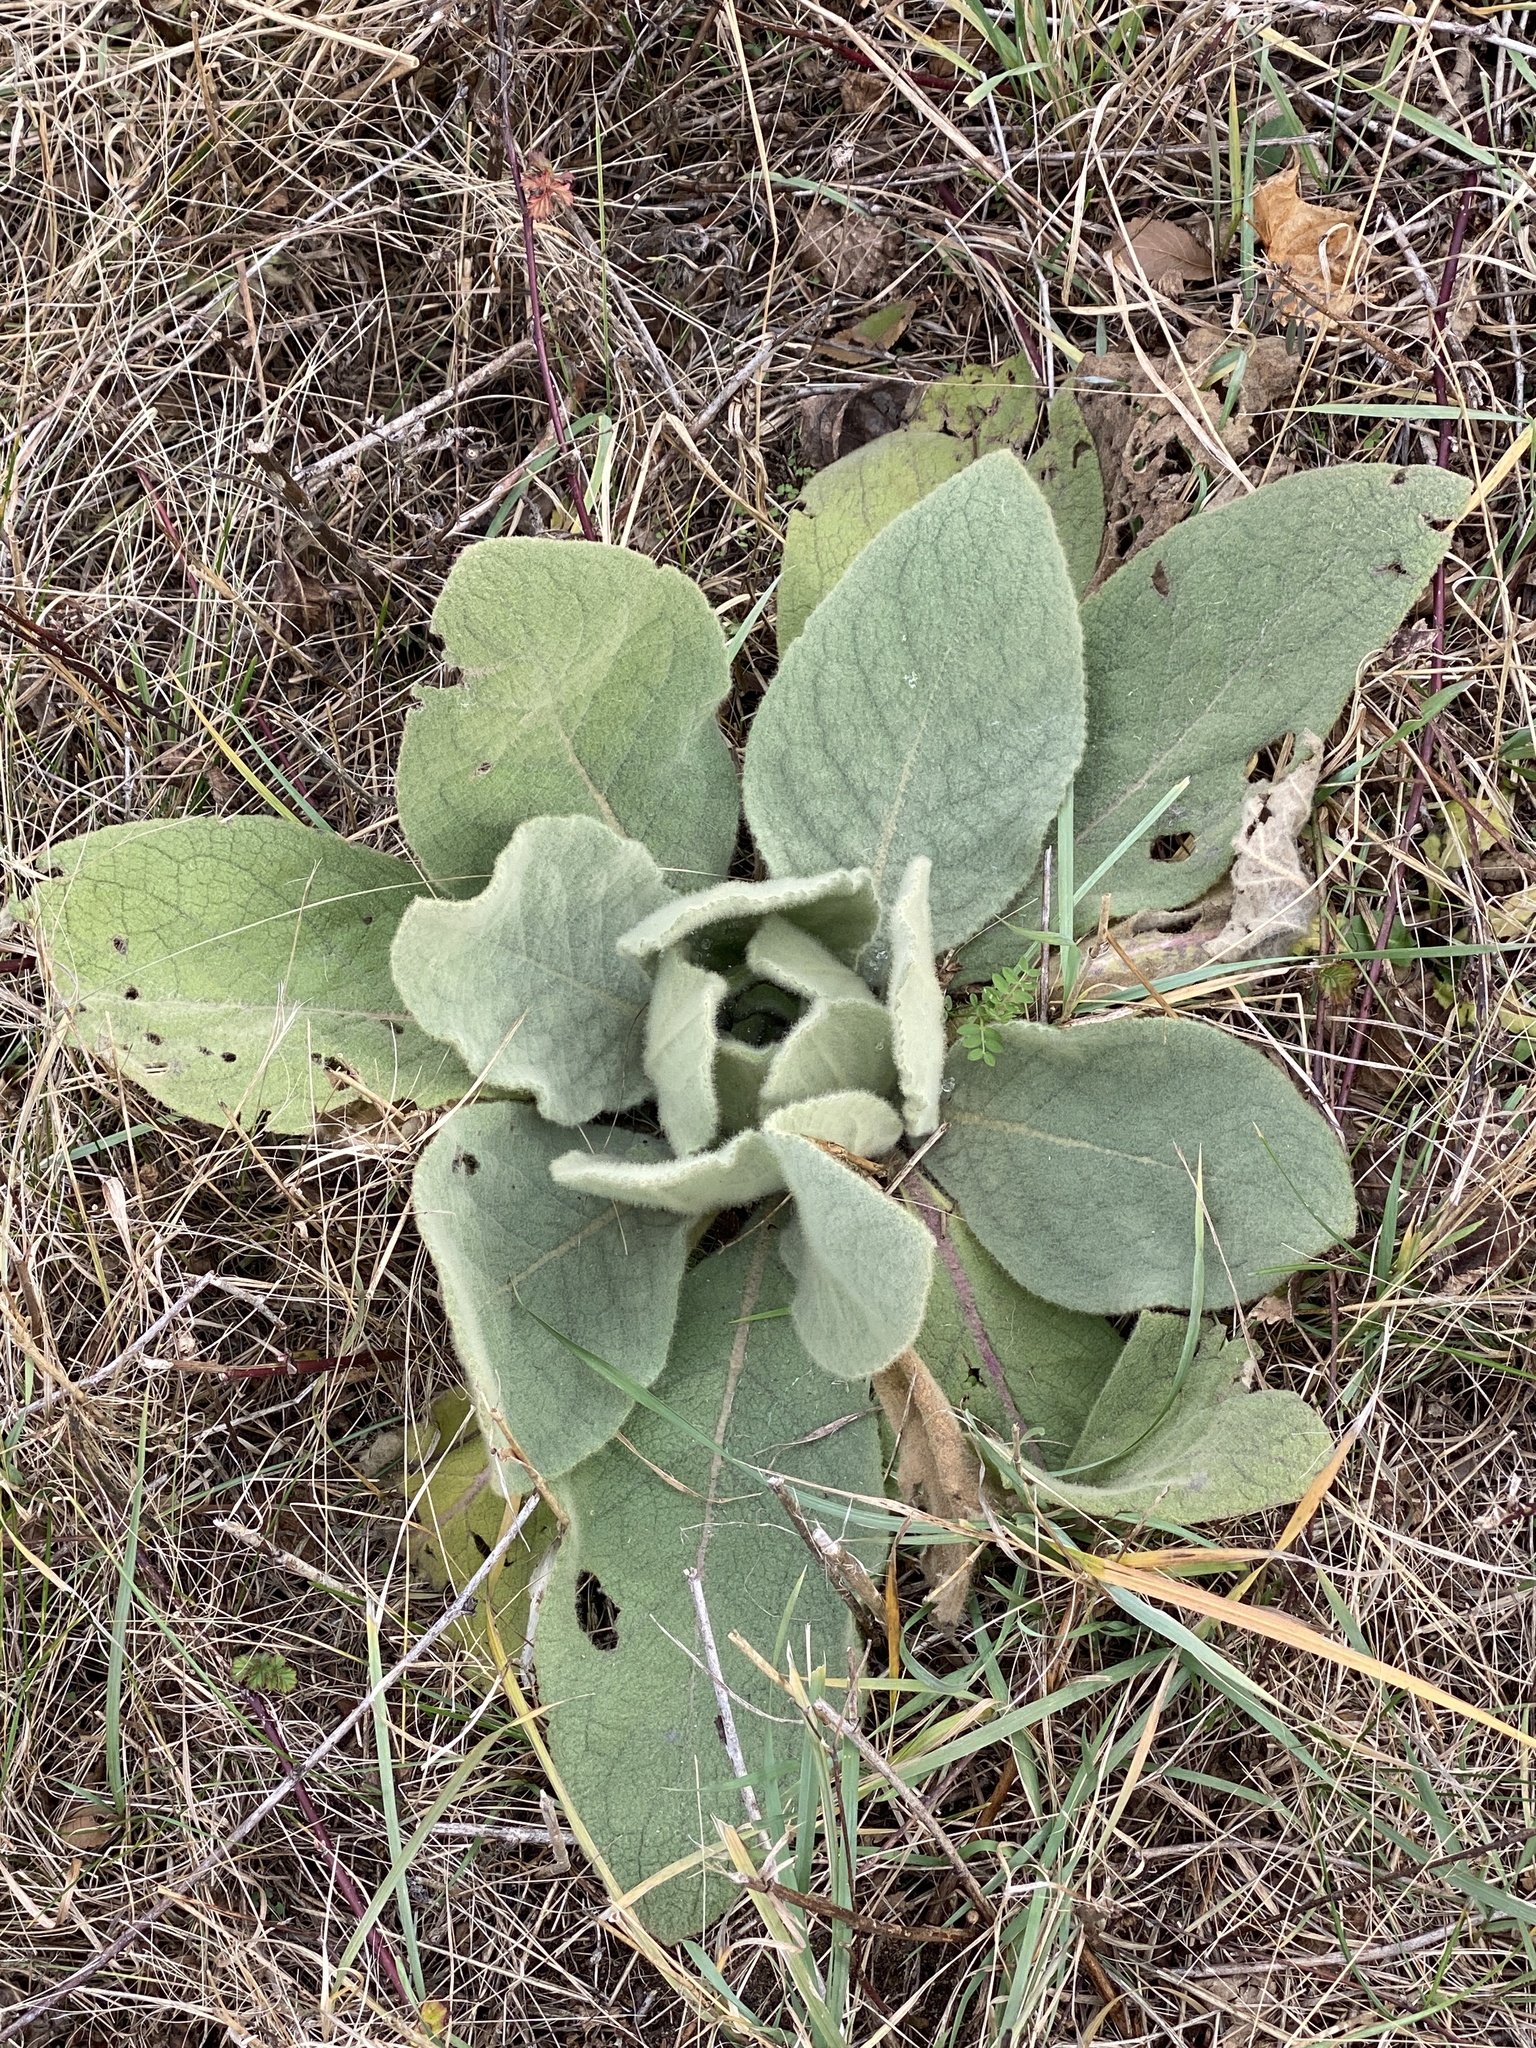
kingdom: Plantae
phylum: Tracheophyta
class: Magnoliopsida
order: Lamiales
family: Scrophulariaceae
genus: Verbascum
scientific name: Verbascum thapsus
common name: Common mullein
